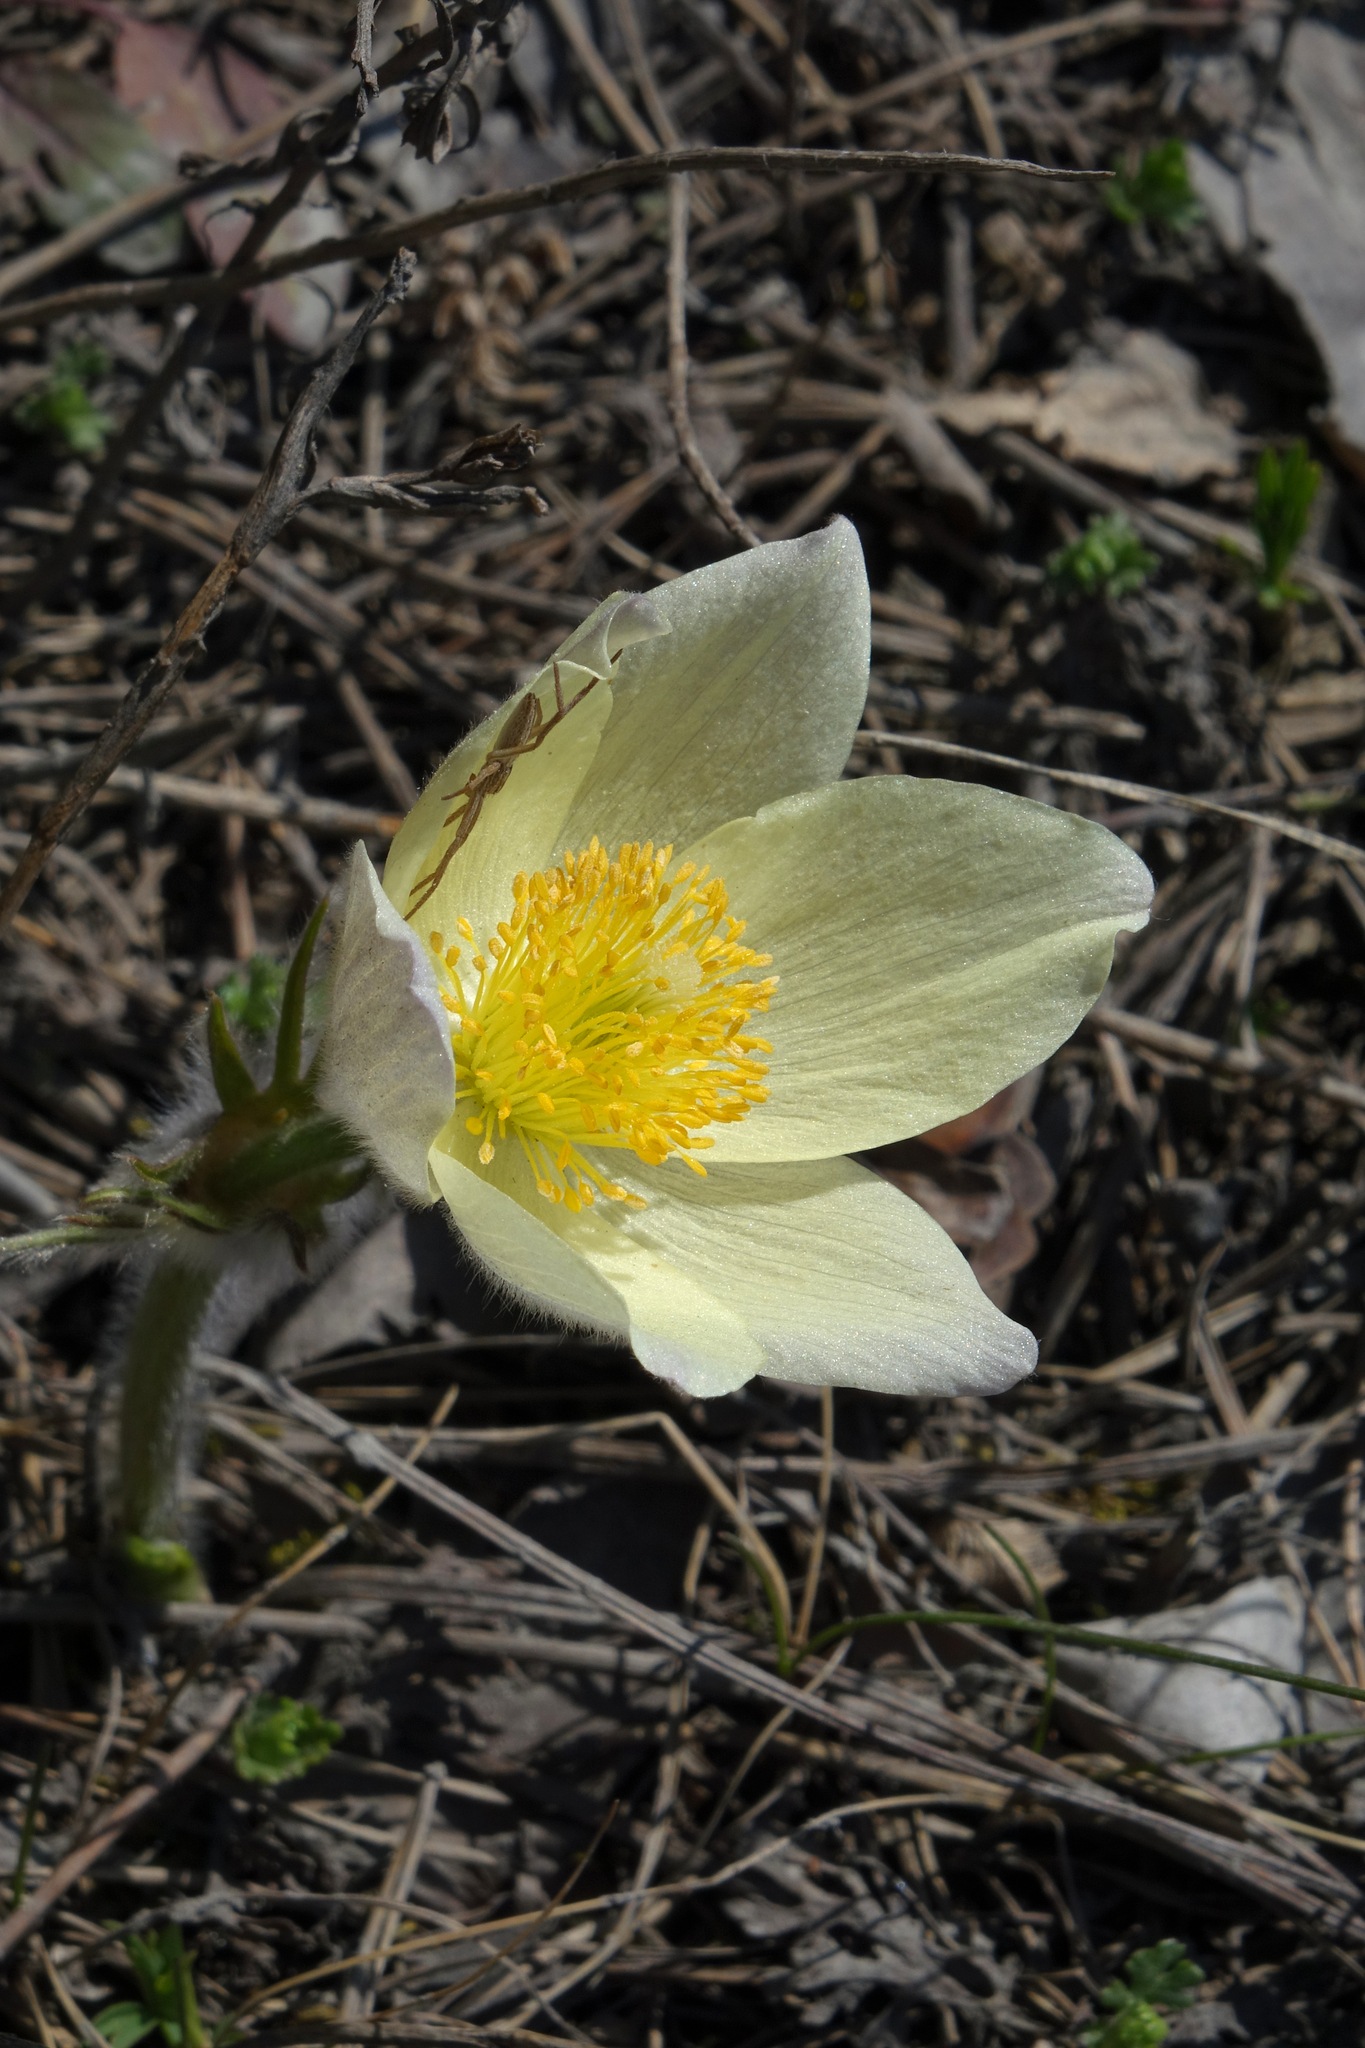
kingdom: Plantae
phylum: Tracheophyta
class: Magnoliopsida
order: Ranunculales
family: Ranunculaceae
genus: Pulsatilla
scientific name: Pulsatilla patens
